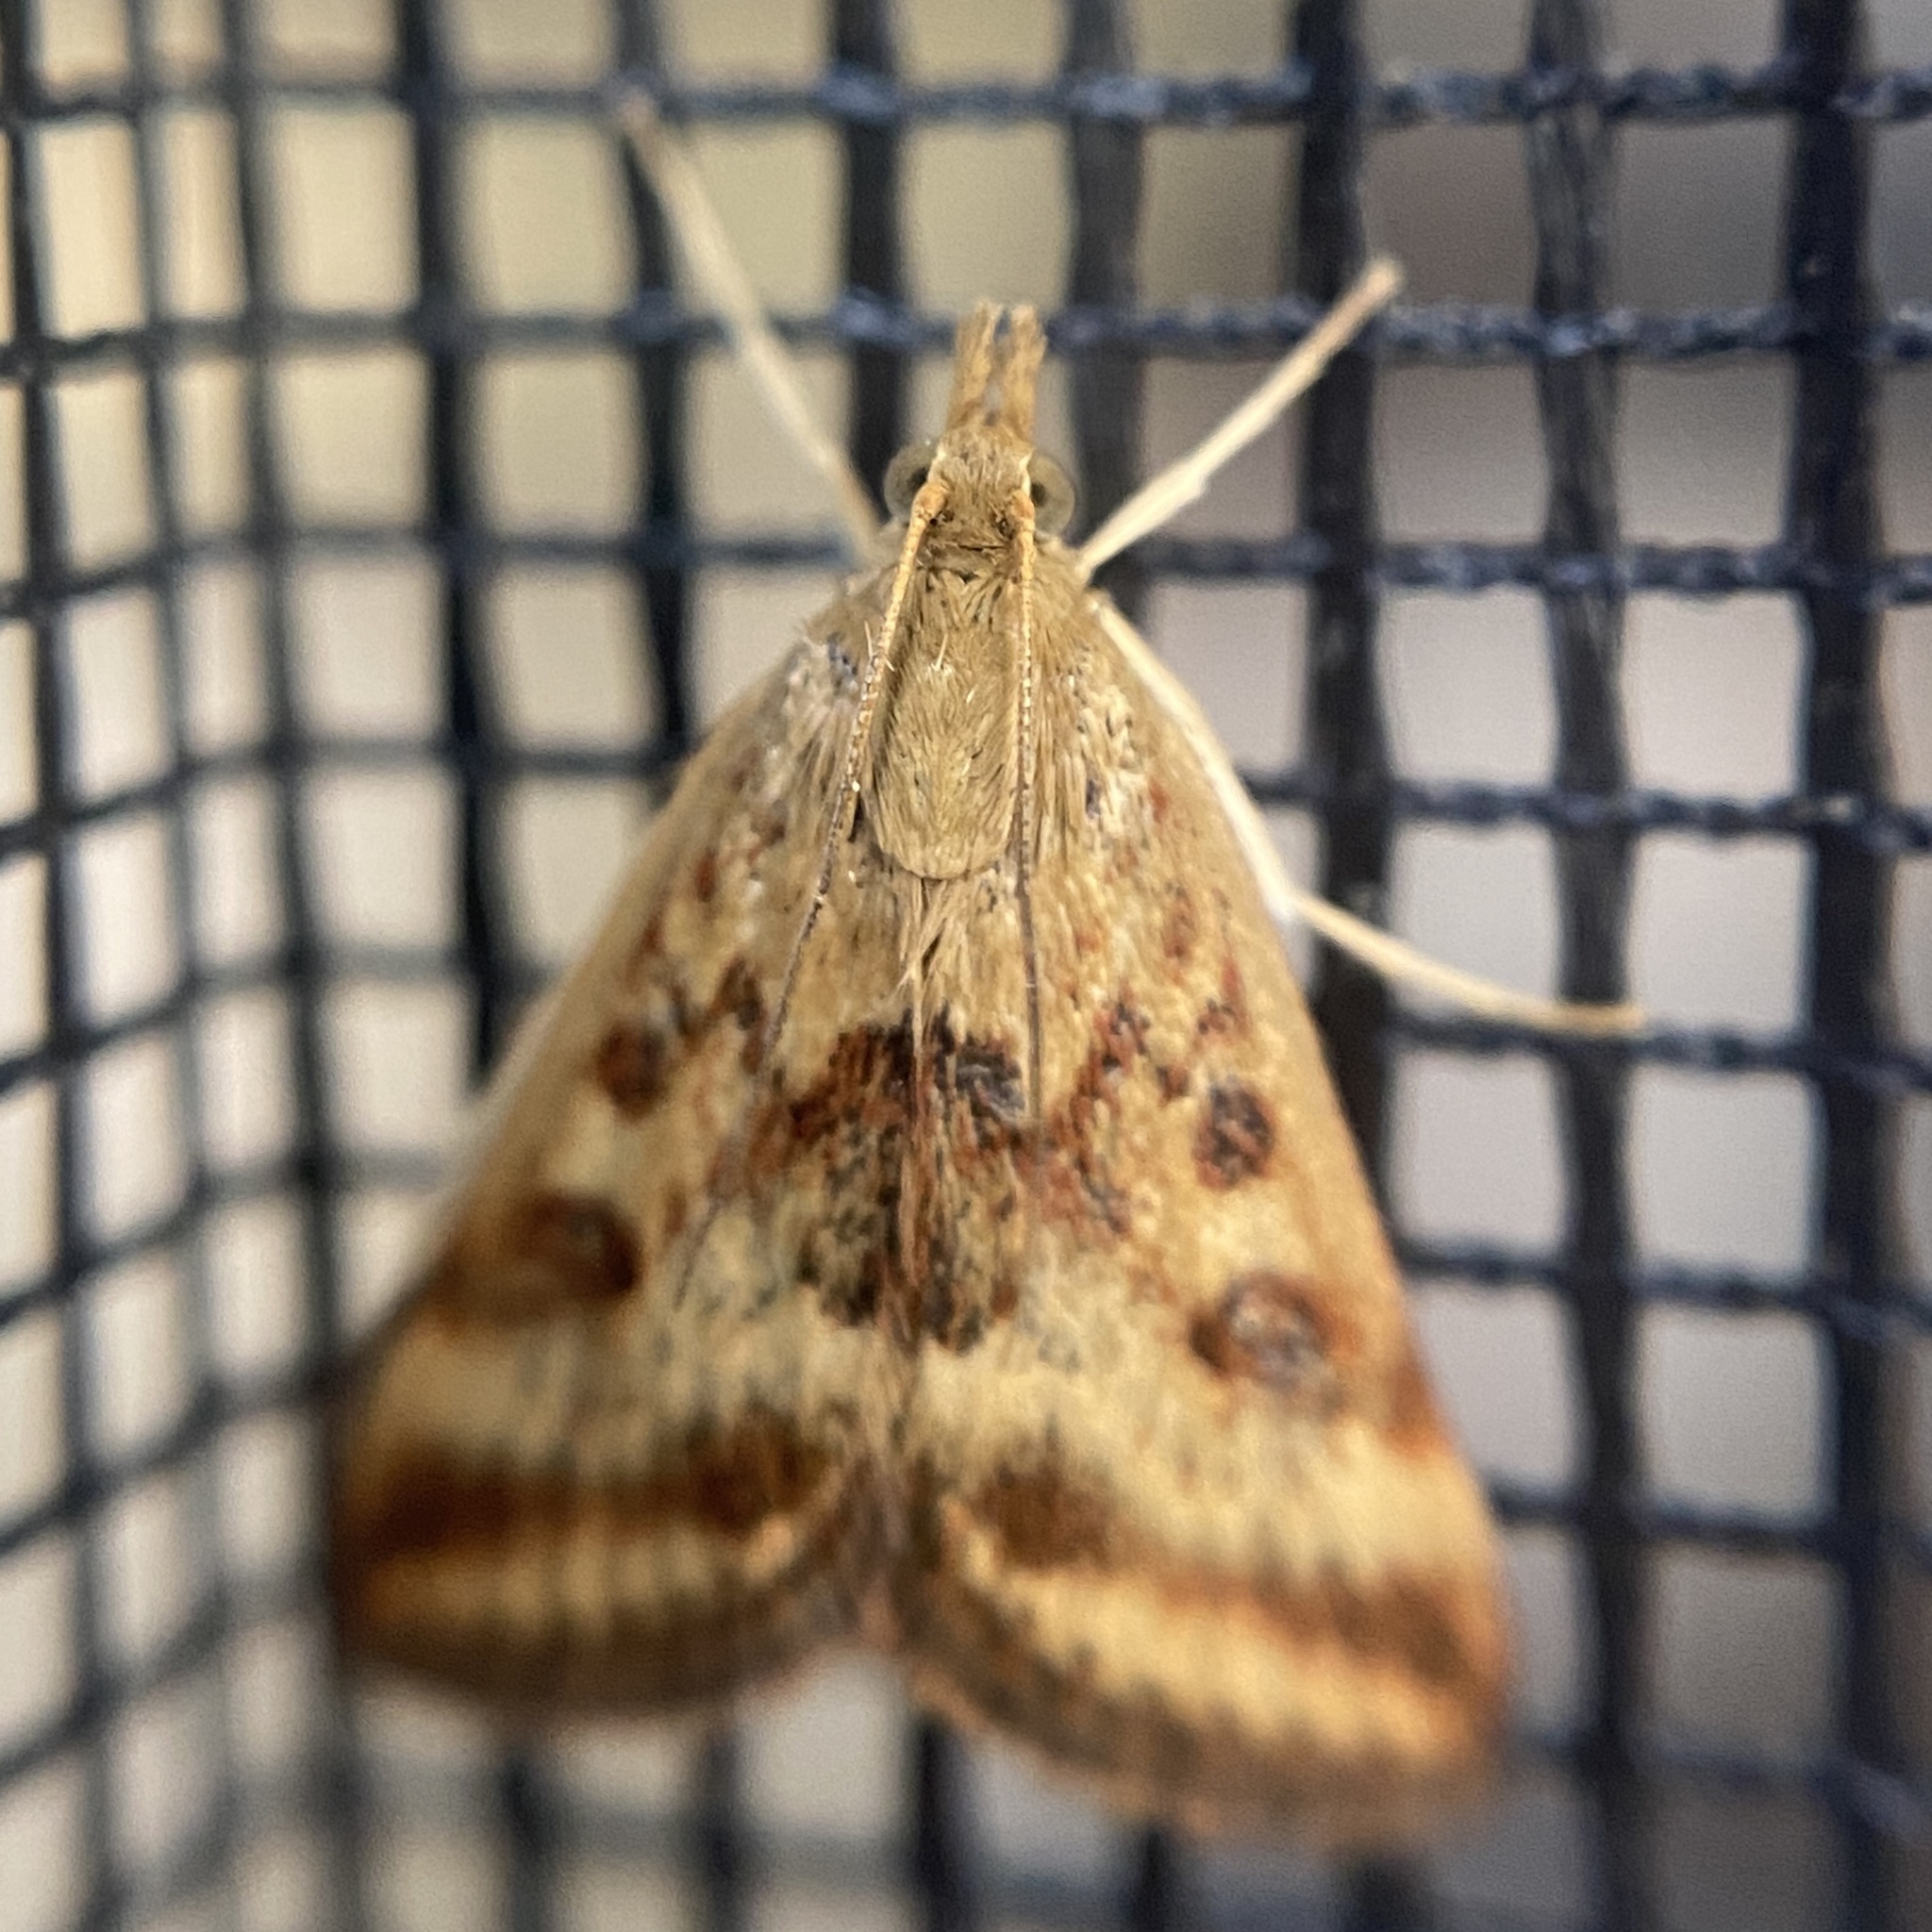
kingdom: Animalia
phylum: Arthropoda
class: Insecta
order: Lepidoptera
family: Crambidae
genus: Pyrausta
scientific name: Pyrausta despicata
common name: Straw-barred pearl
